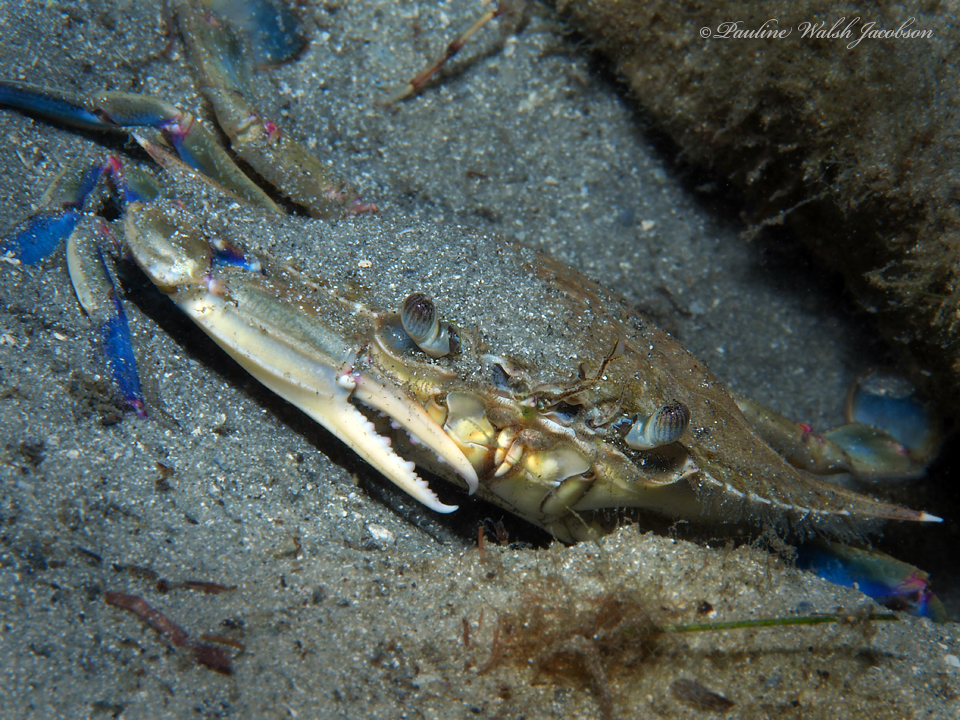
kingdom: Animalia
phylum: Arthropoda
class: Malacostraca
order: Decapoda
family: Portunidae
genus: Callinectes
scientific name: Callinectes sapidus
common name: Blue crab
